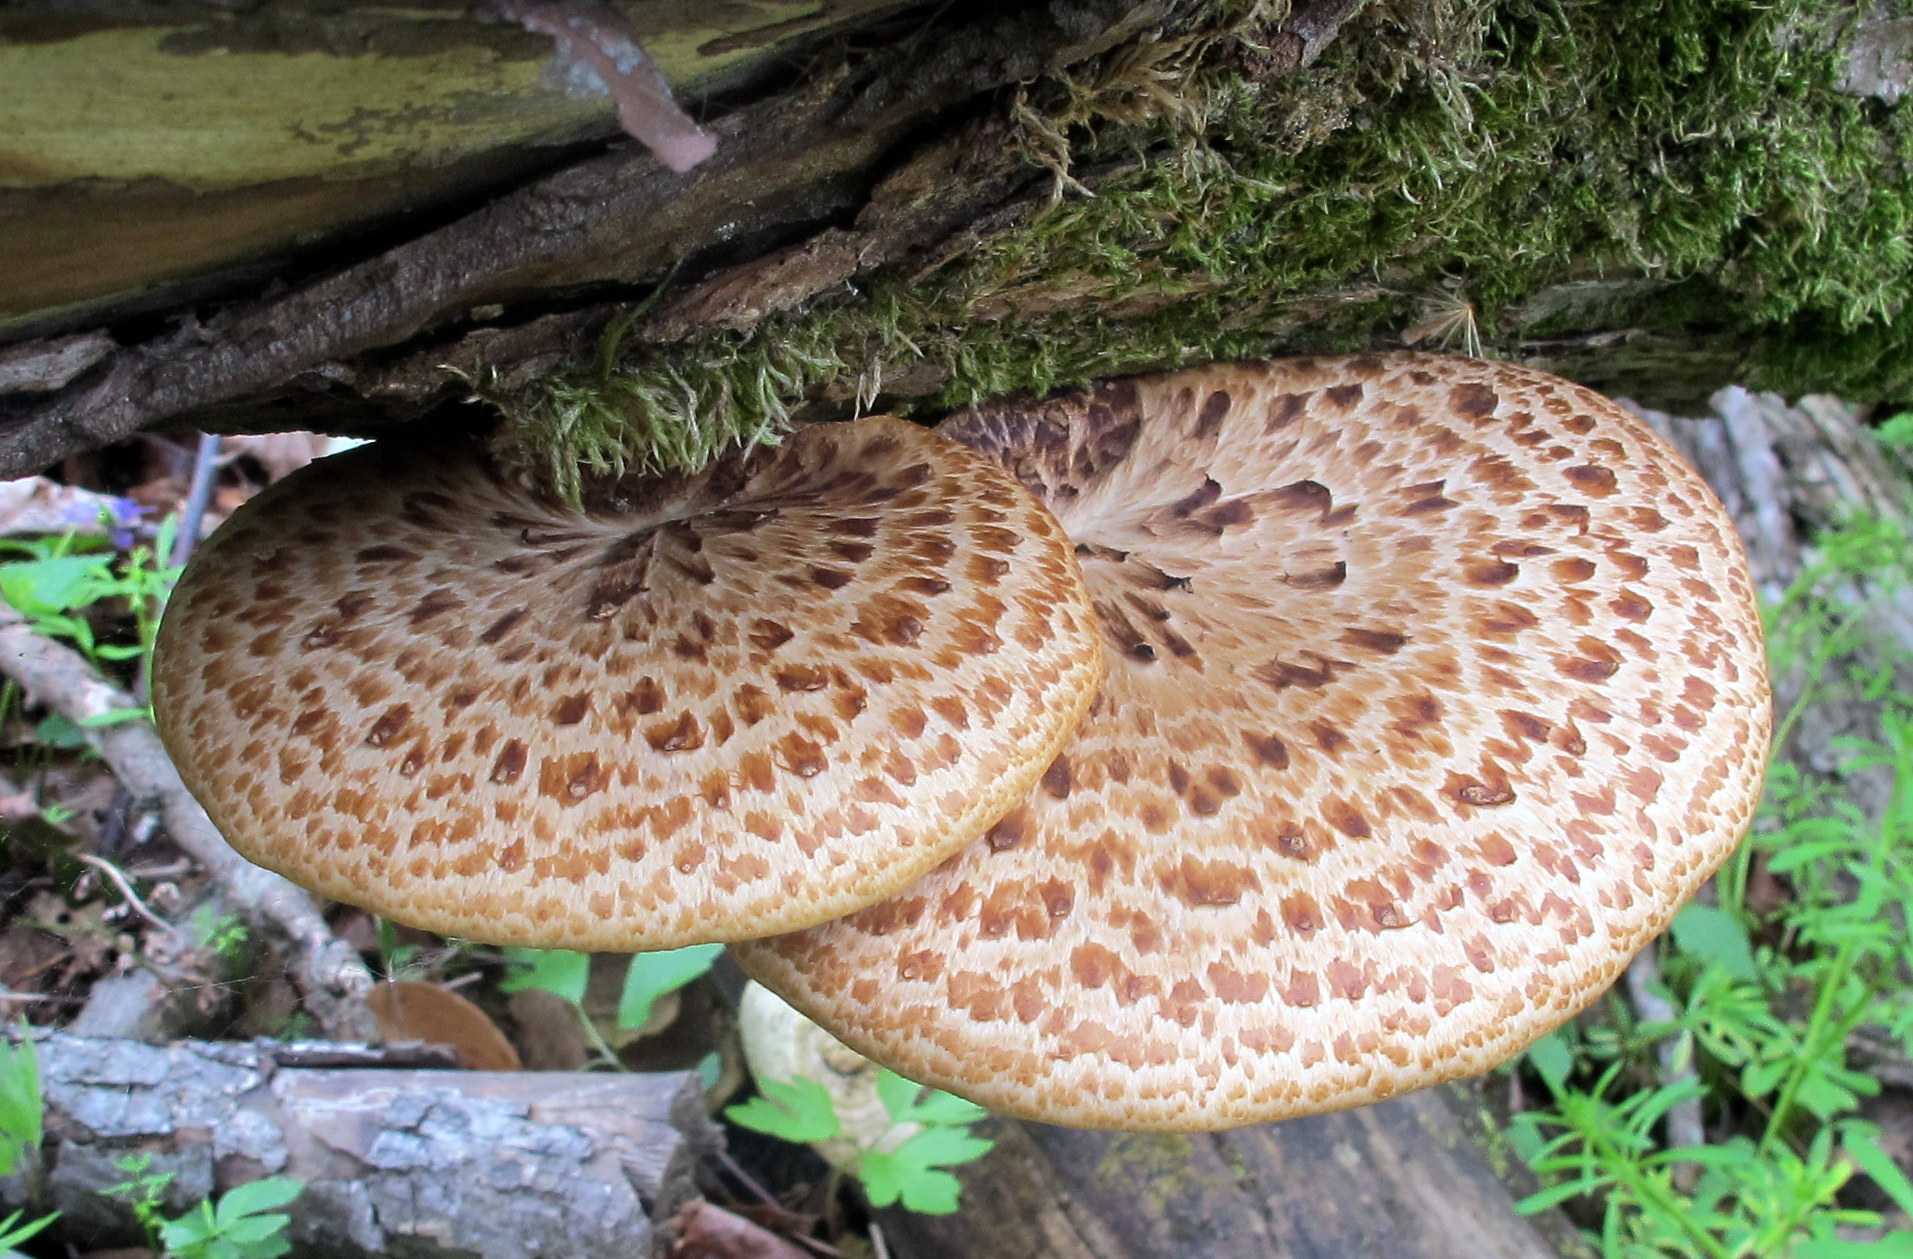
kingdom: Fungi
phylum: Basidiomycota
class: Agaricomycetes
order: Polyporales
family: Polyporaceae
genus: Cerioporus
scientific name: Cerioporus squamosus
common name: Dryad's saddle
